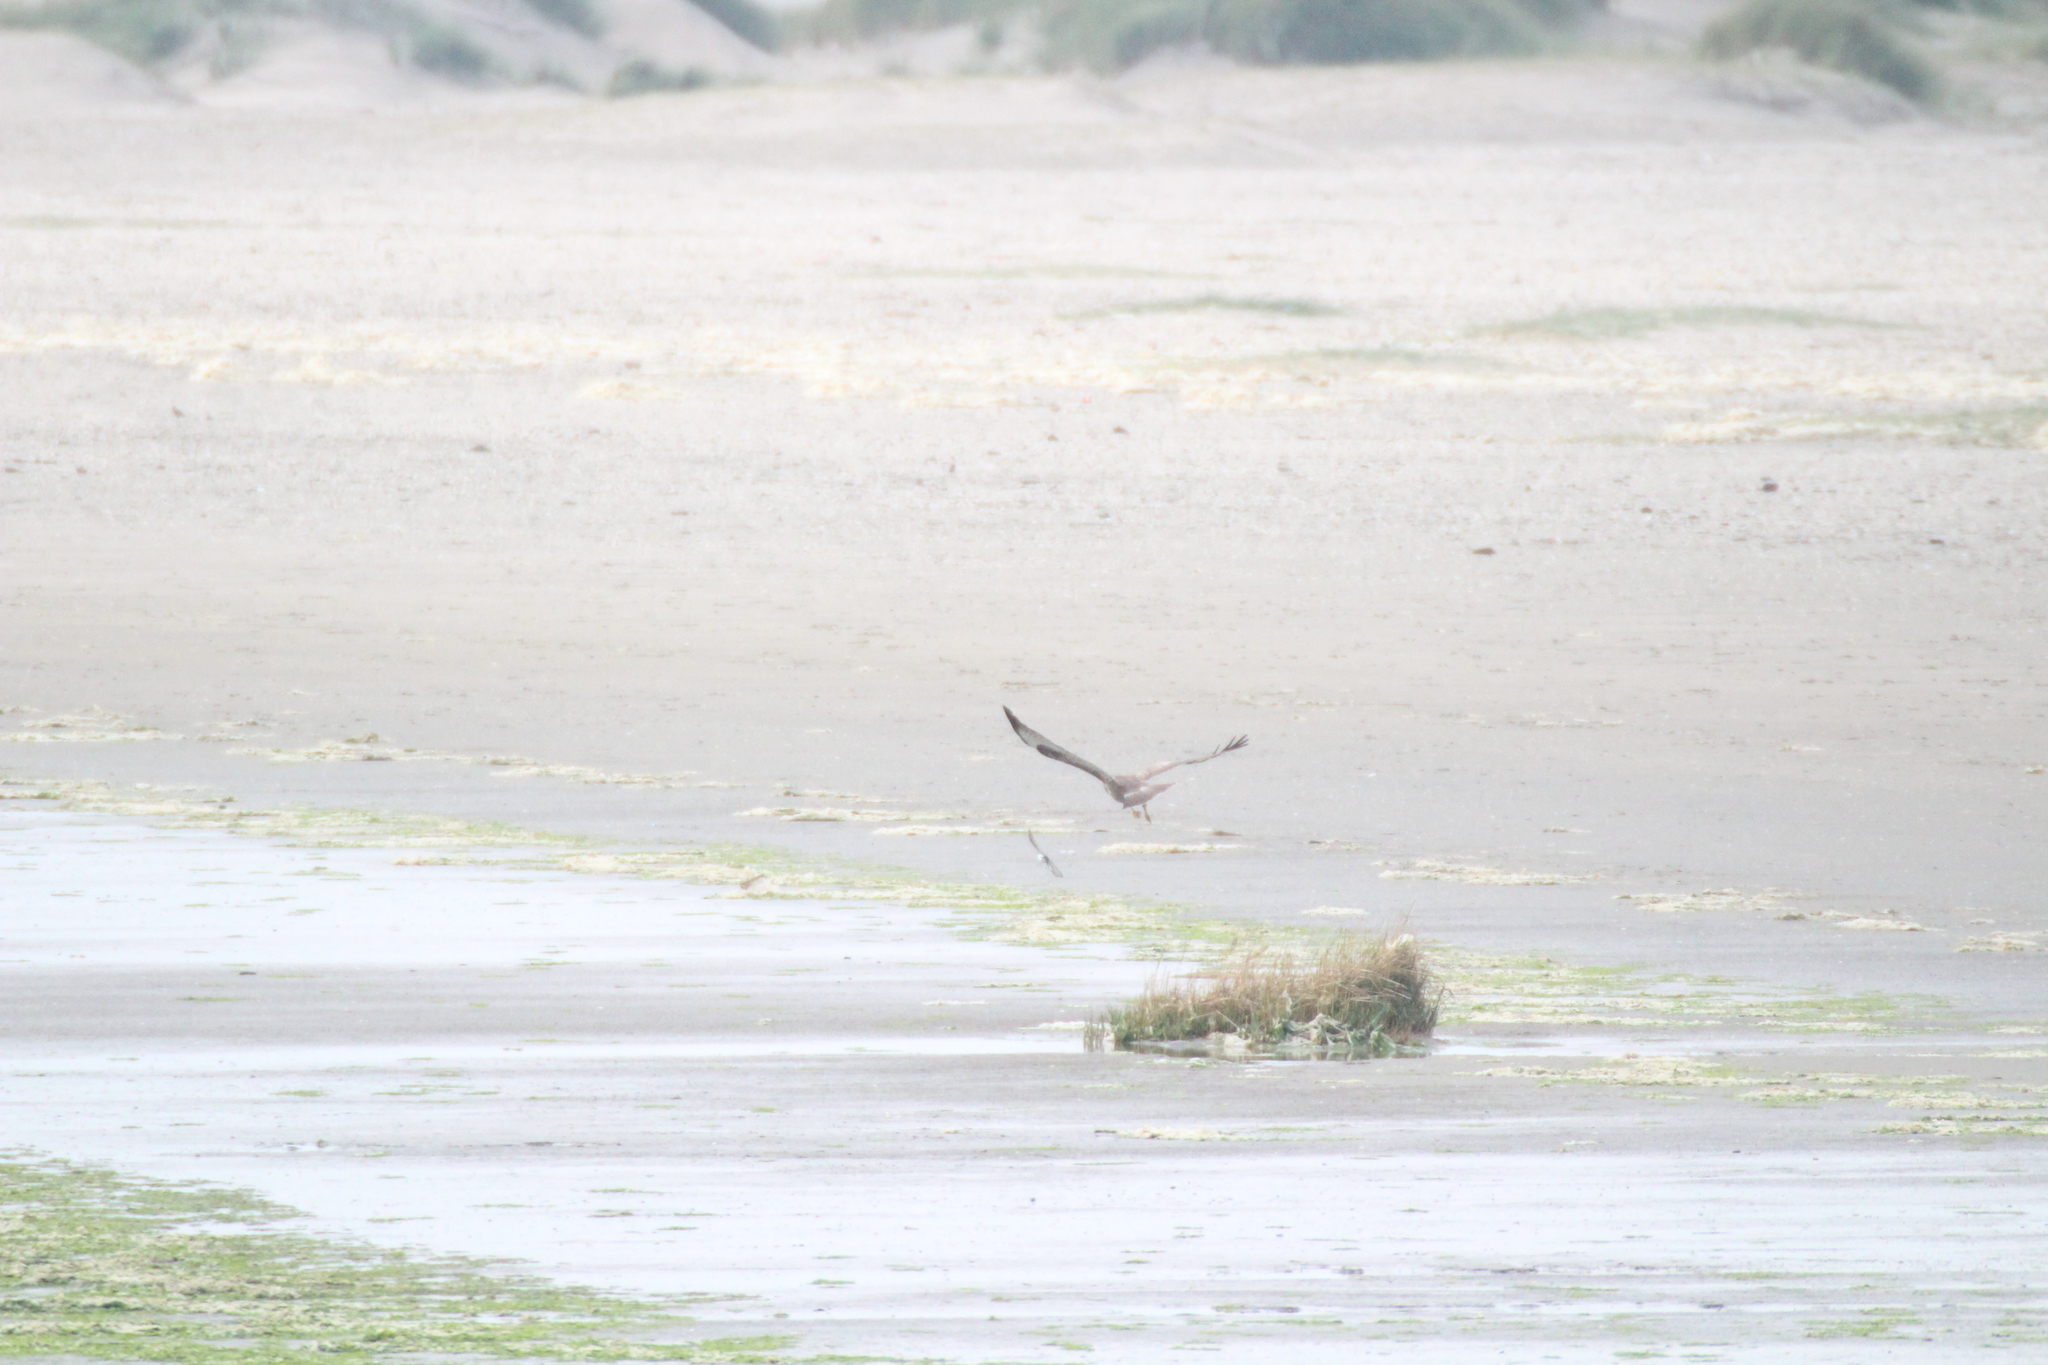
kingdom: Animalia
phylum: Chordata
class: Aves
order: Accipitriformes
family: Accipitridae
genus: Circus
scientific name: Circus aeruginosus
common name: Western marsh harrier
